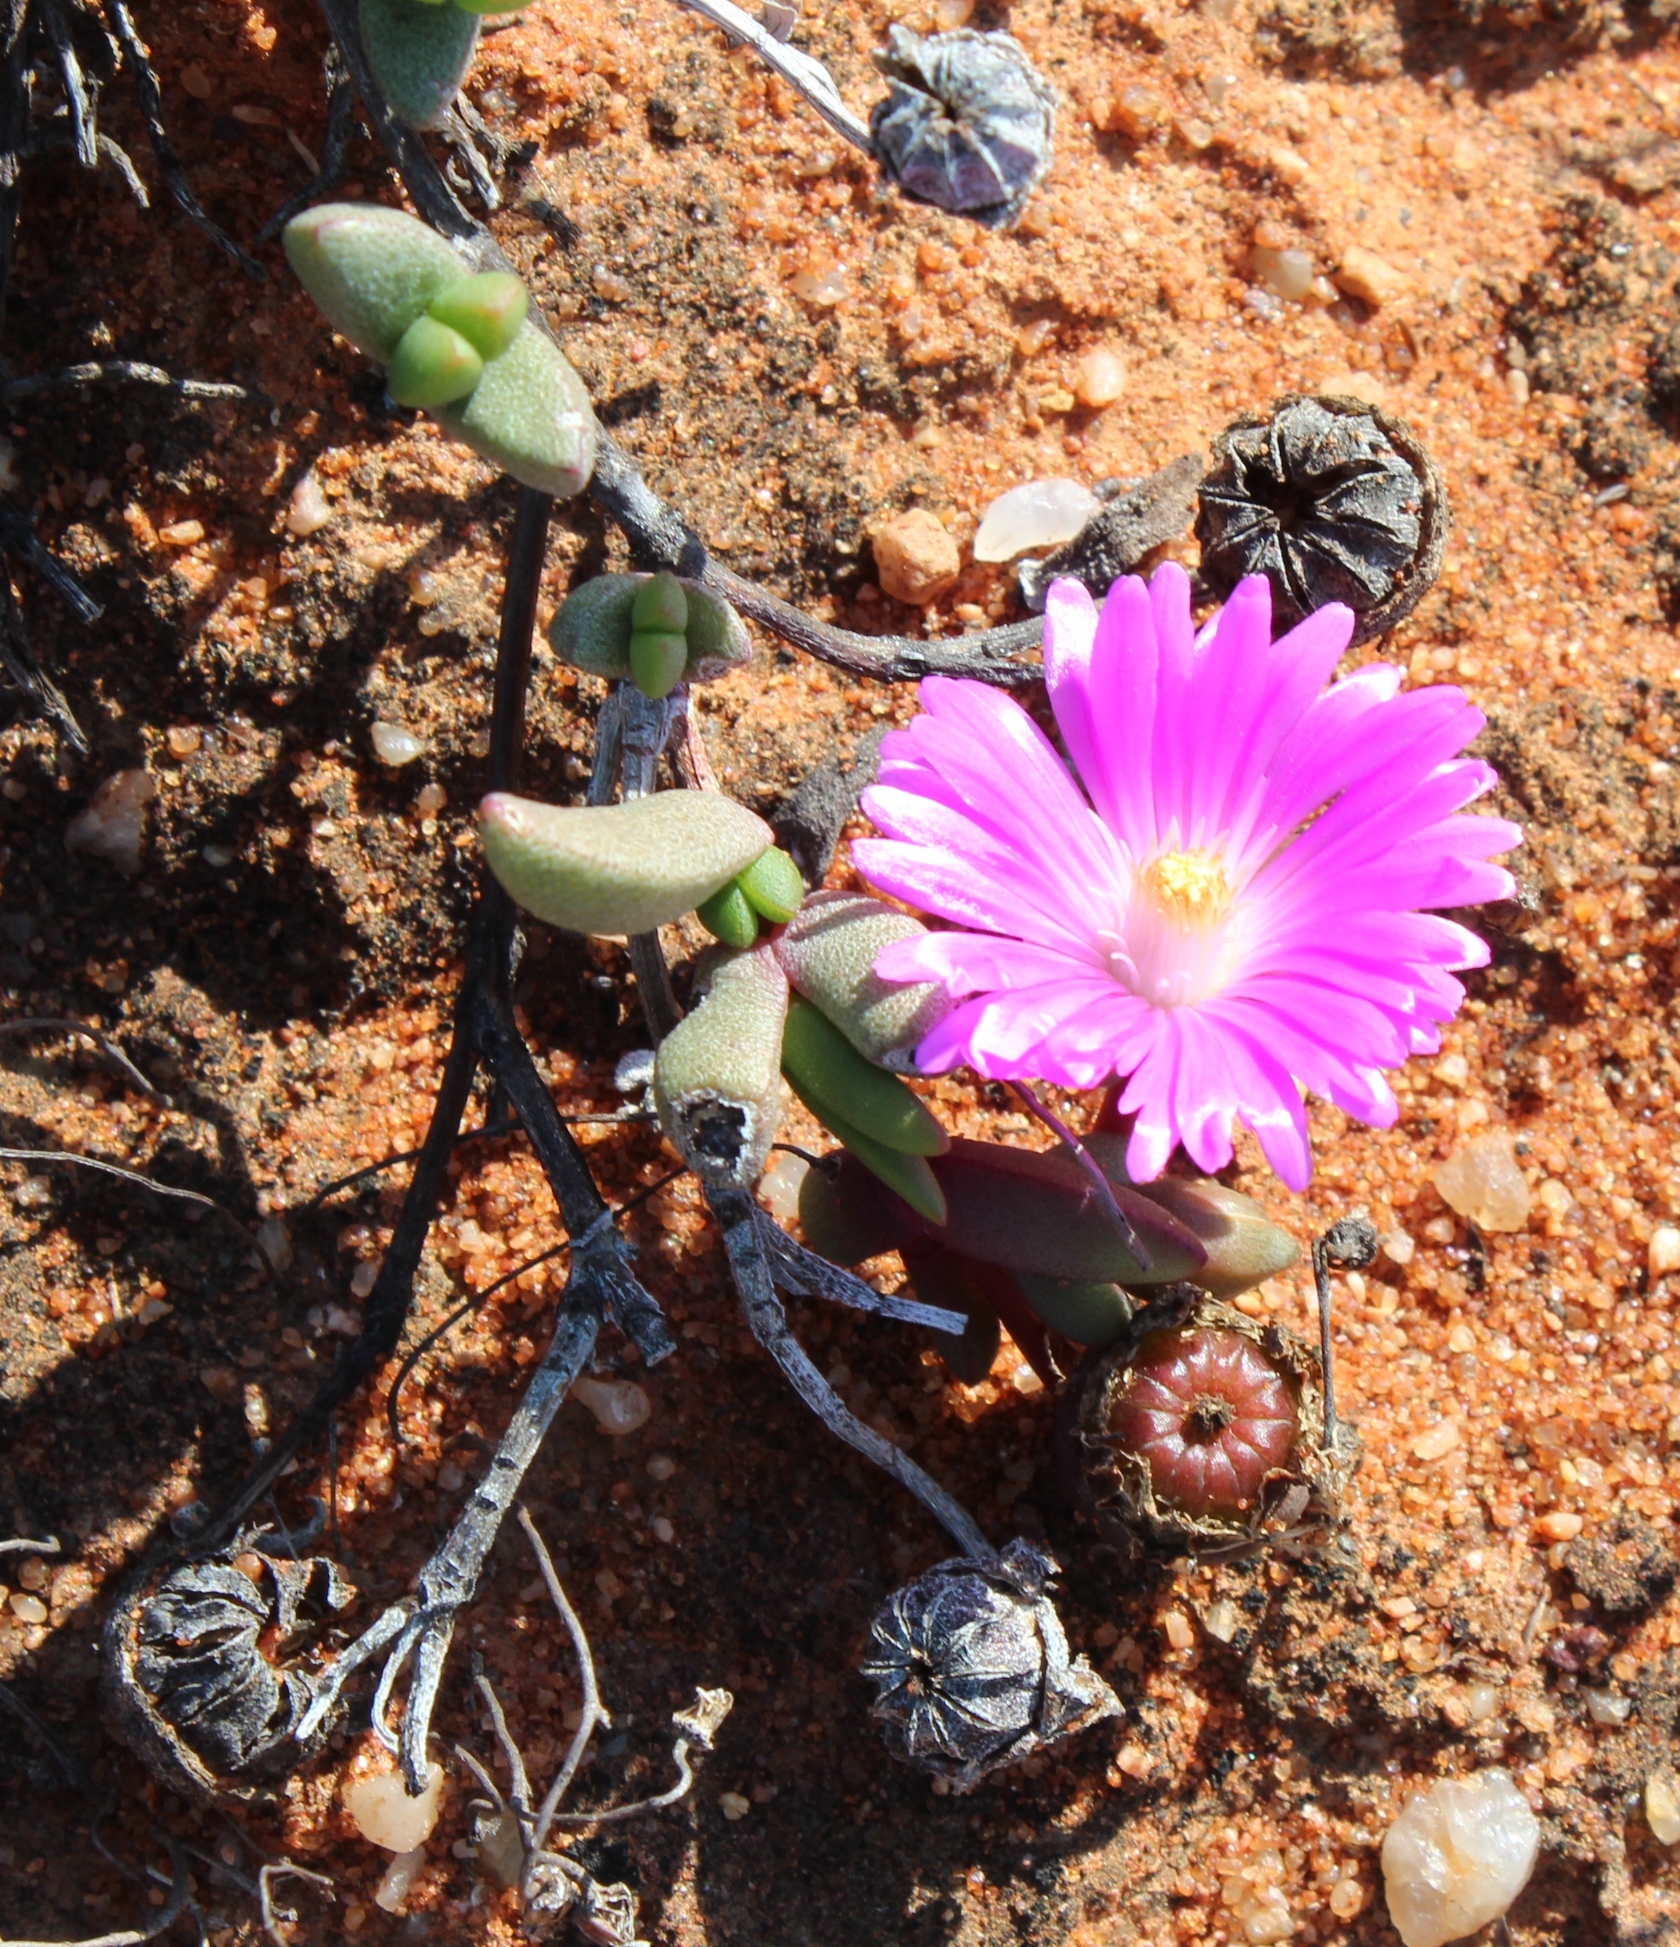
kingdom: Plantae
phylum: Tracheophyta
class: Magnoliopsida
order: Caryophyllales
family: Aizoaceae
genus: Hallianthus
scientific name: Hallianthus planus
